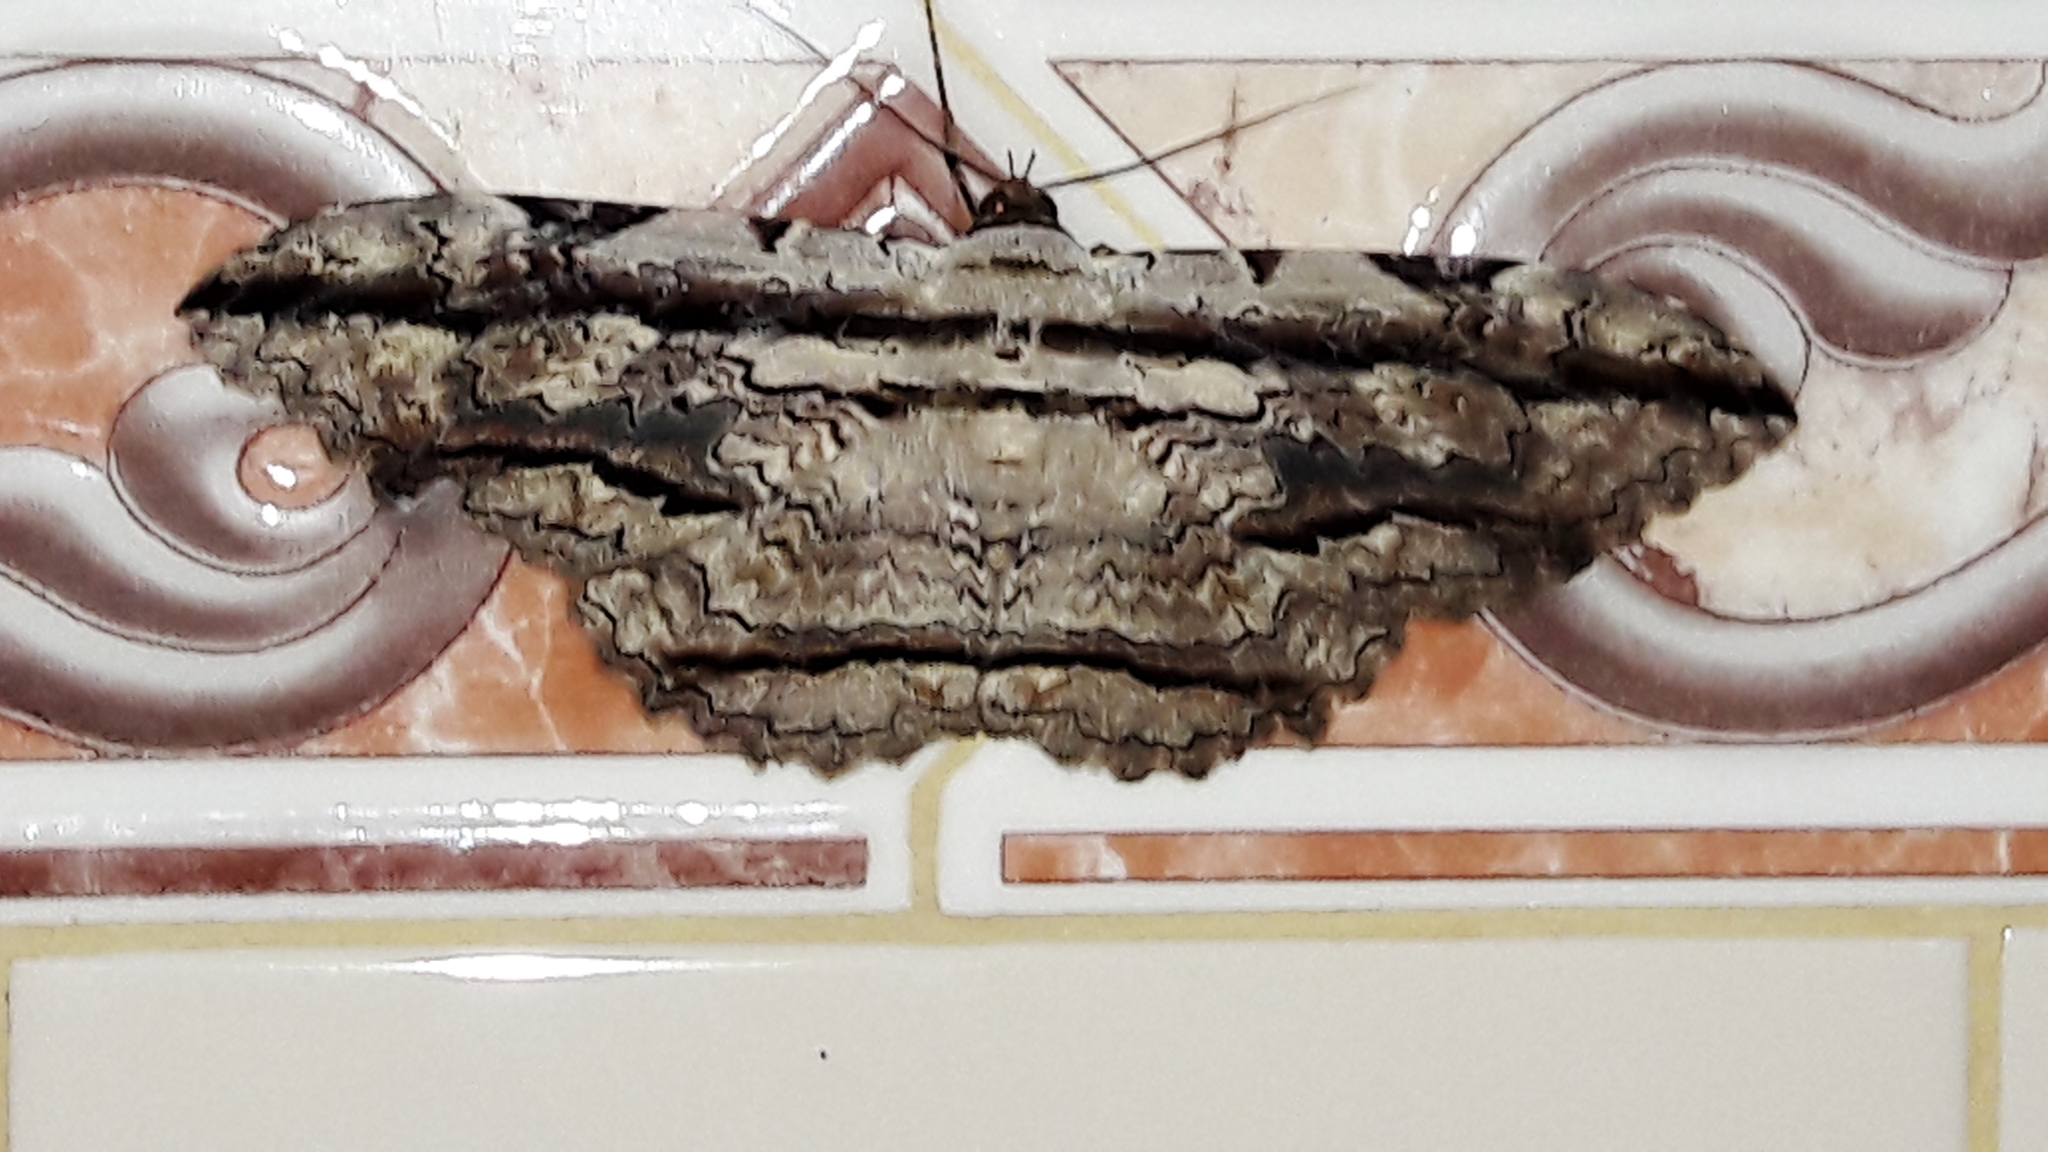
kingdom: Animalia
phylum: Arthropoda
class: Insecta
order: Lepidoptera
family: Erebidae
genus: Thysania
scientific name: Thysania zenobia
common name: Owl moth
